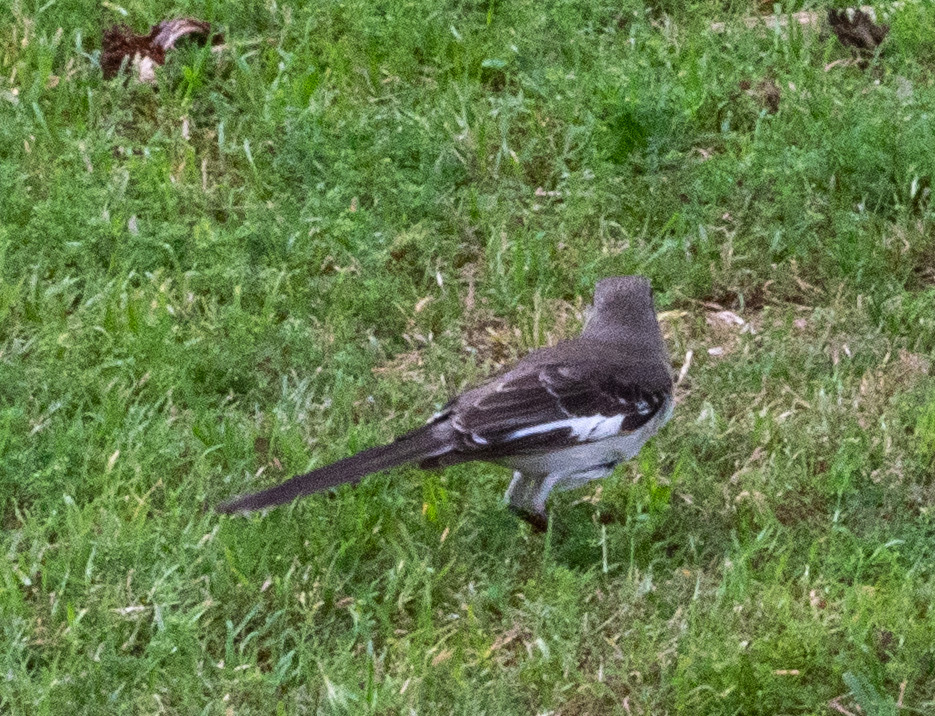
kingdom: Animalia
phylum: Chordata
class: Aves
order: Passeriformes
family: Mimidae
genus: Mimus
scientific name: Mimus polyglottos
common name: Northern mockingbird
